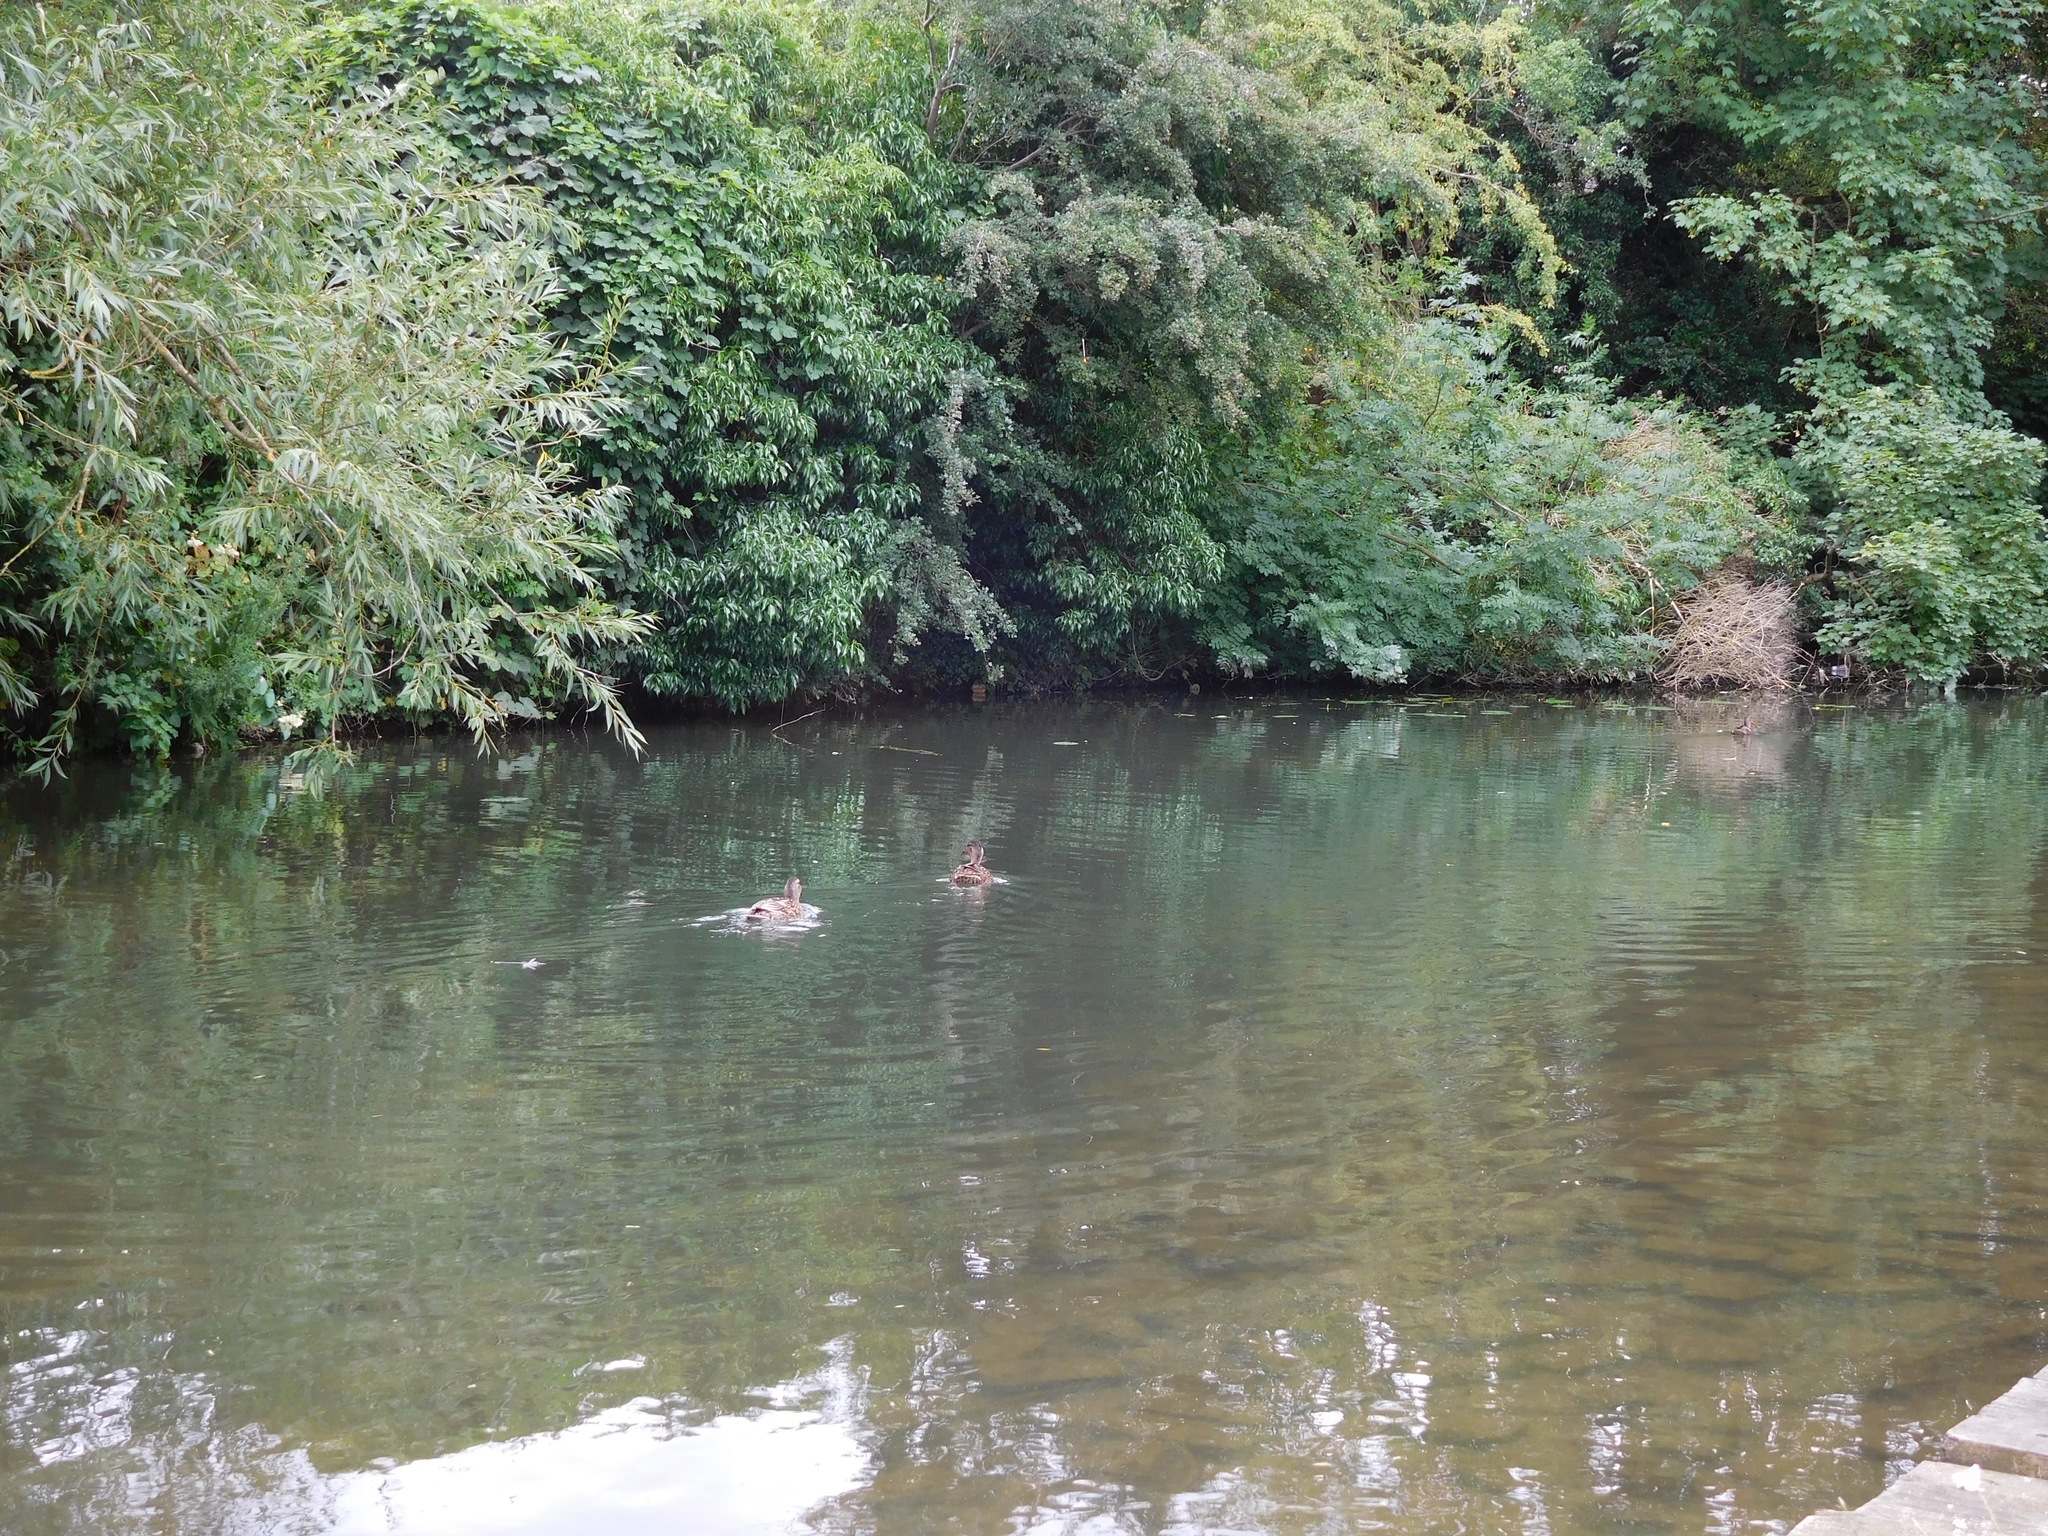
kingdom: Animalia
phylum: Chordata
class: Aves
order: Anseriformes
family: Anatidae
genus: Anas
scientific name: Anas platyrhynchos
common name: Mallard
